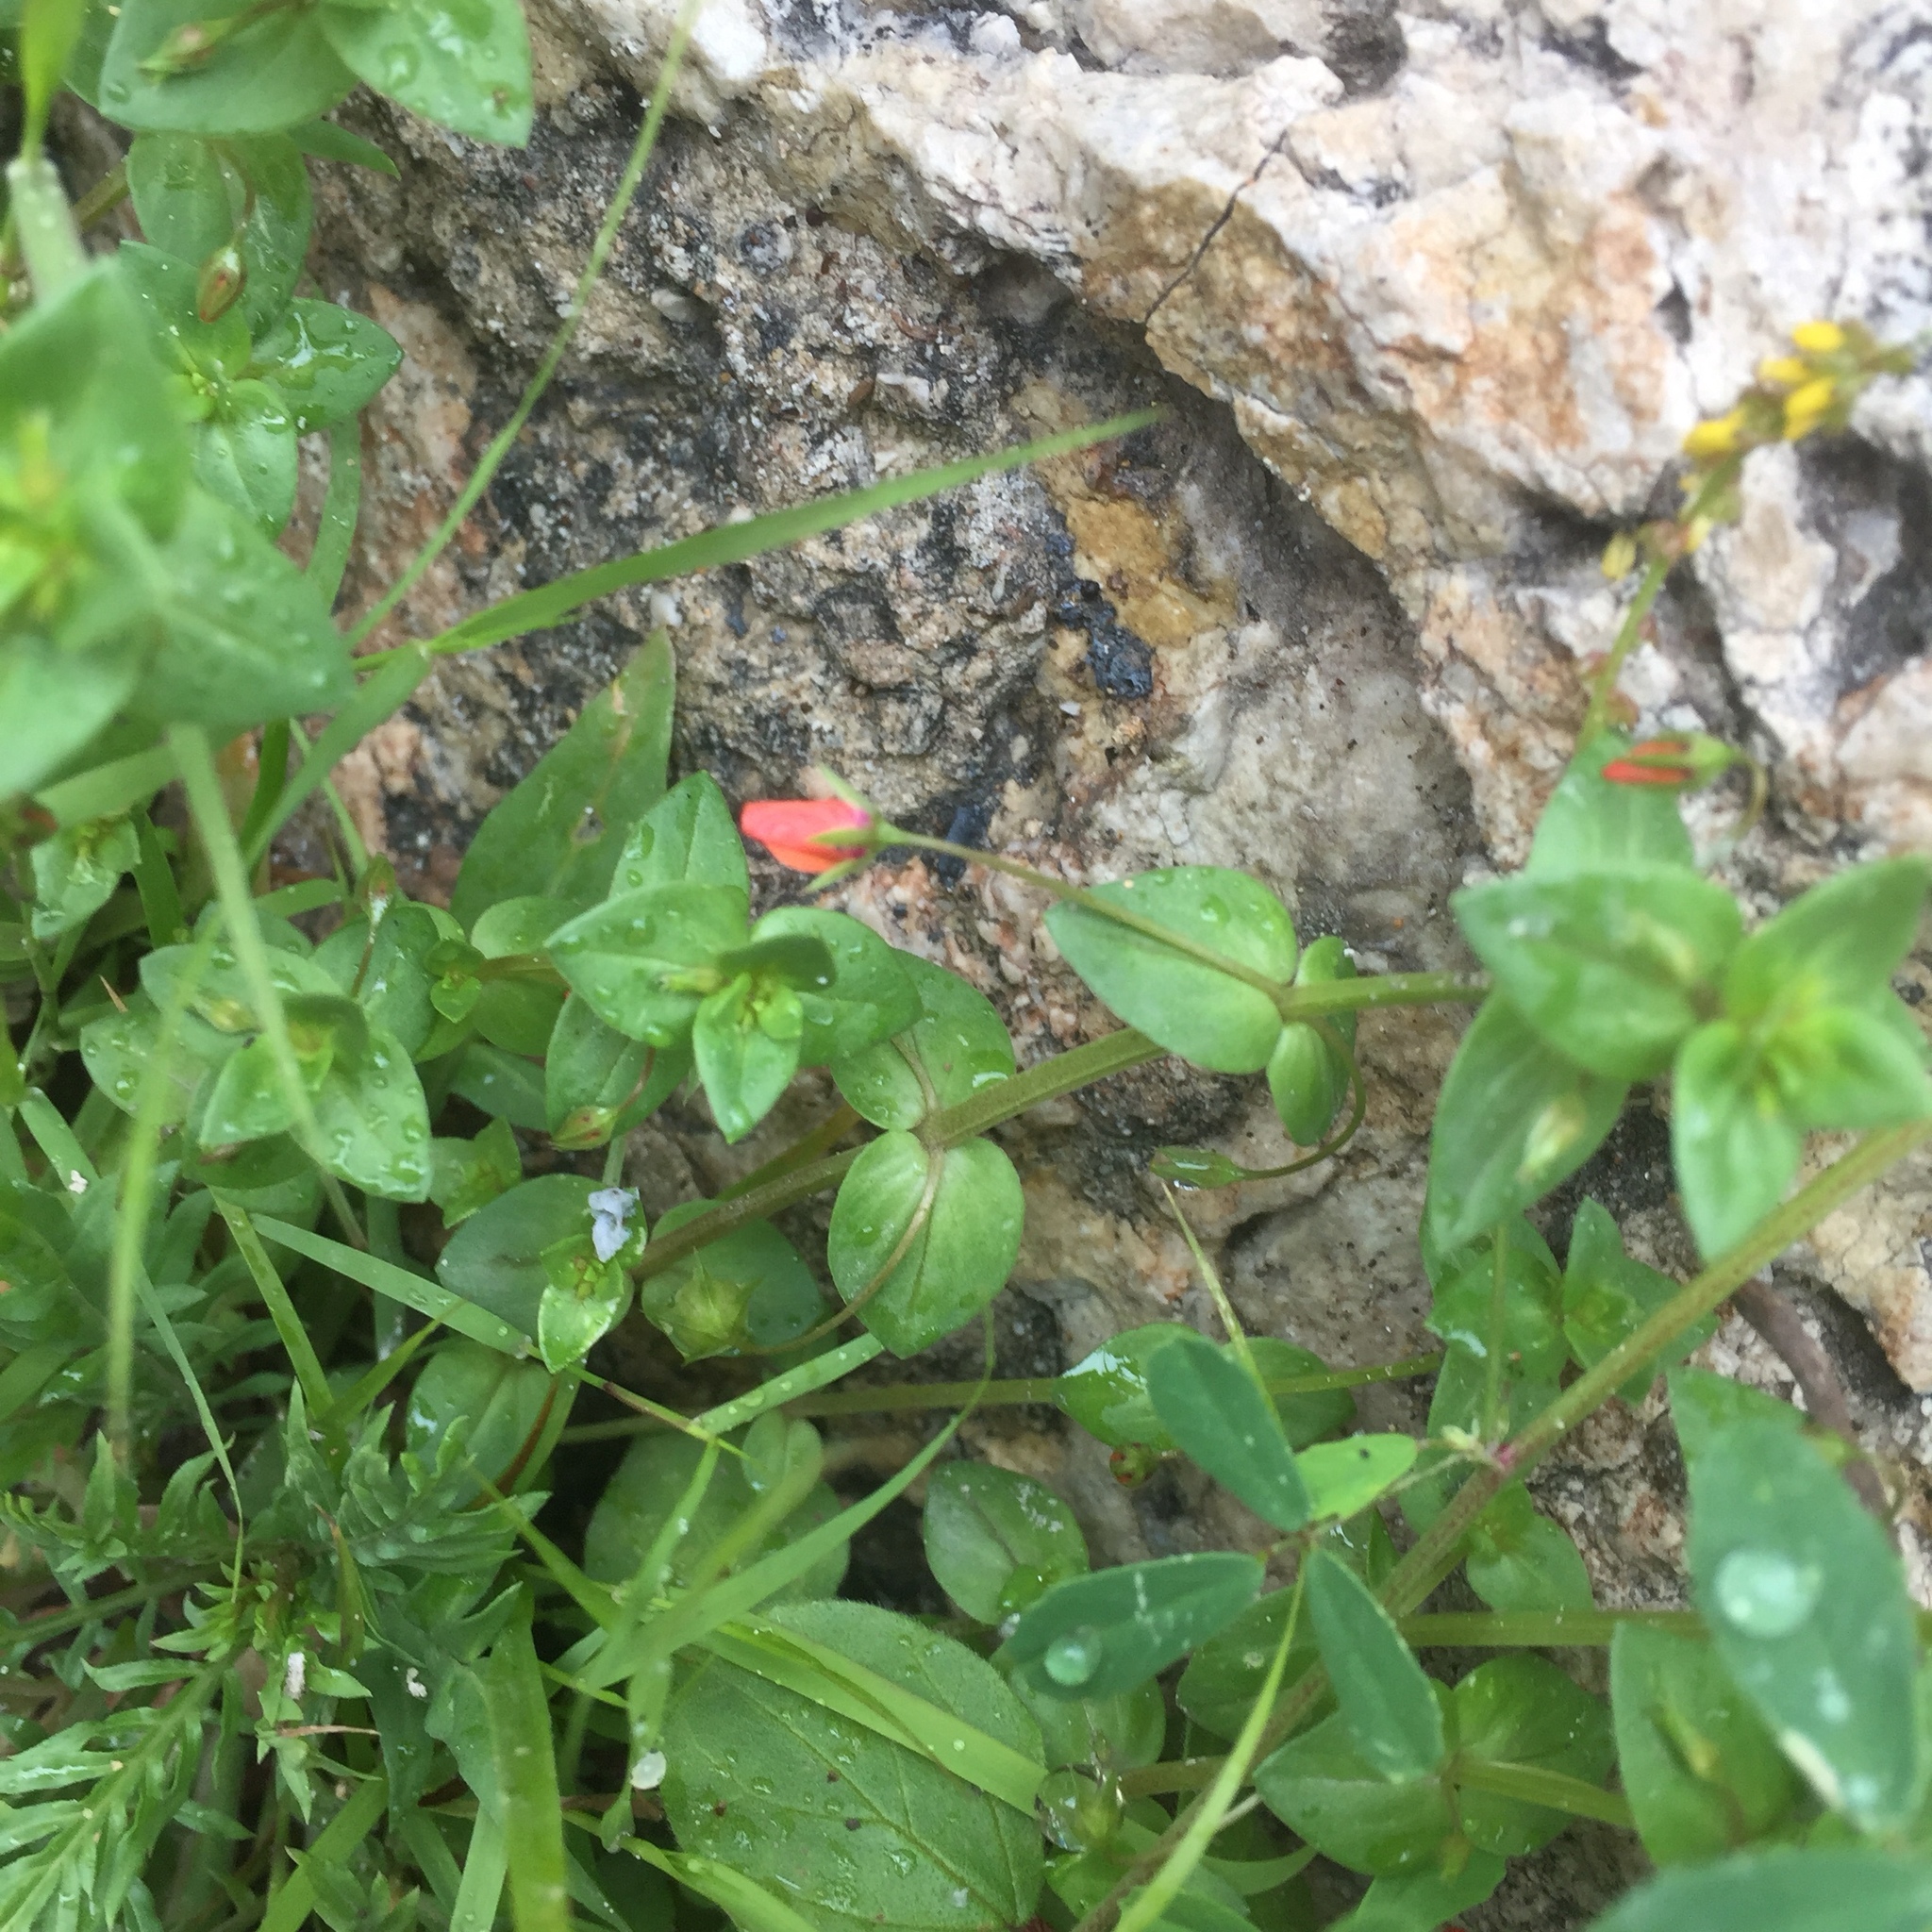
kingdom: Plantae
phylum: Tracheophyta
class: Magnoliopsida
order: Ericales
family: Primulaceae
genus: Lysimachia
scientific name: Lysimachia arvensis
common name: Scarlet pimpernel
